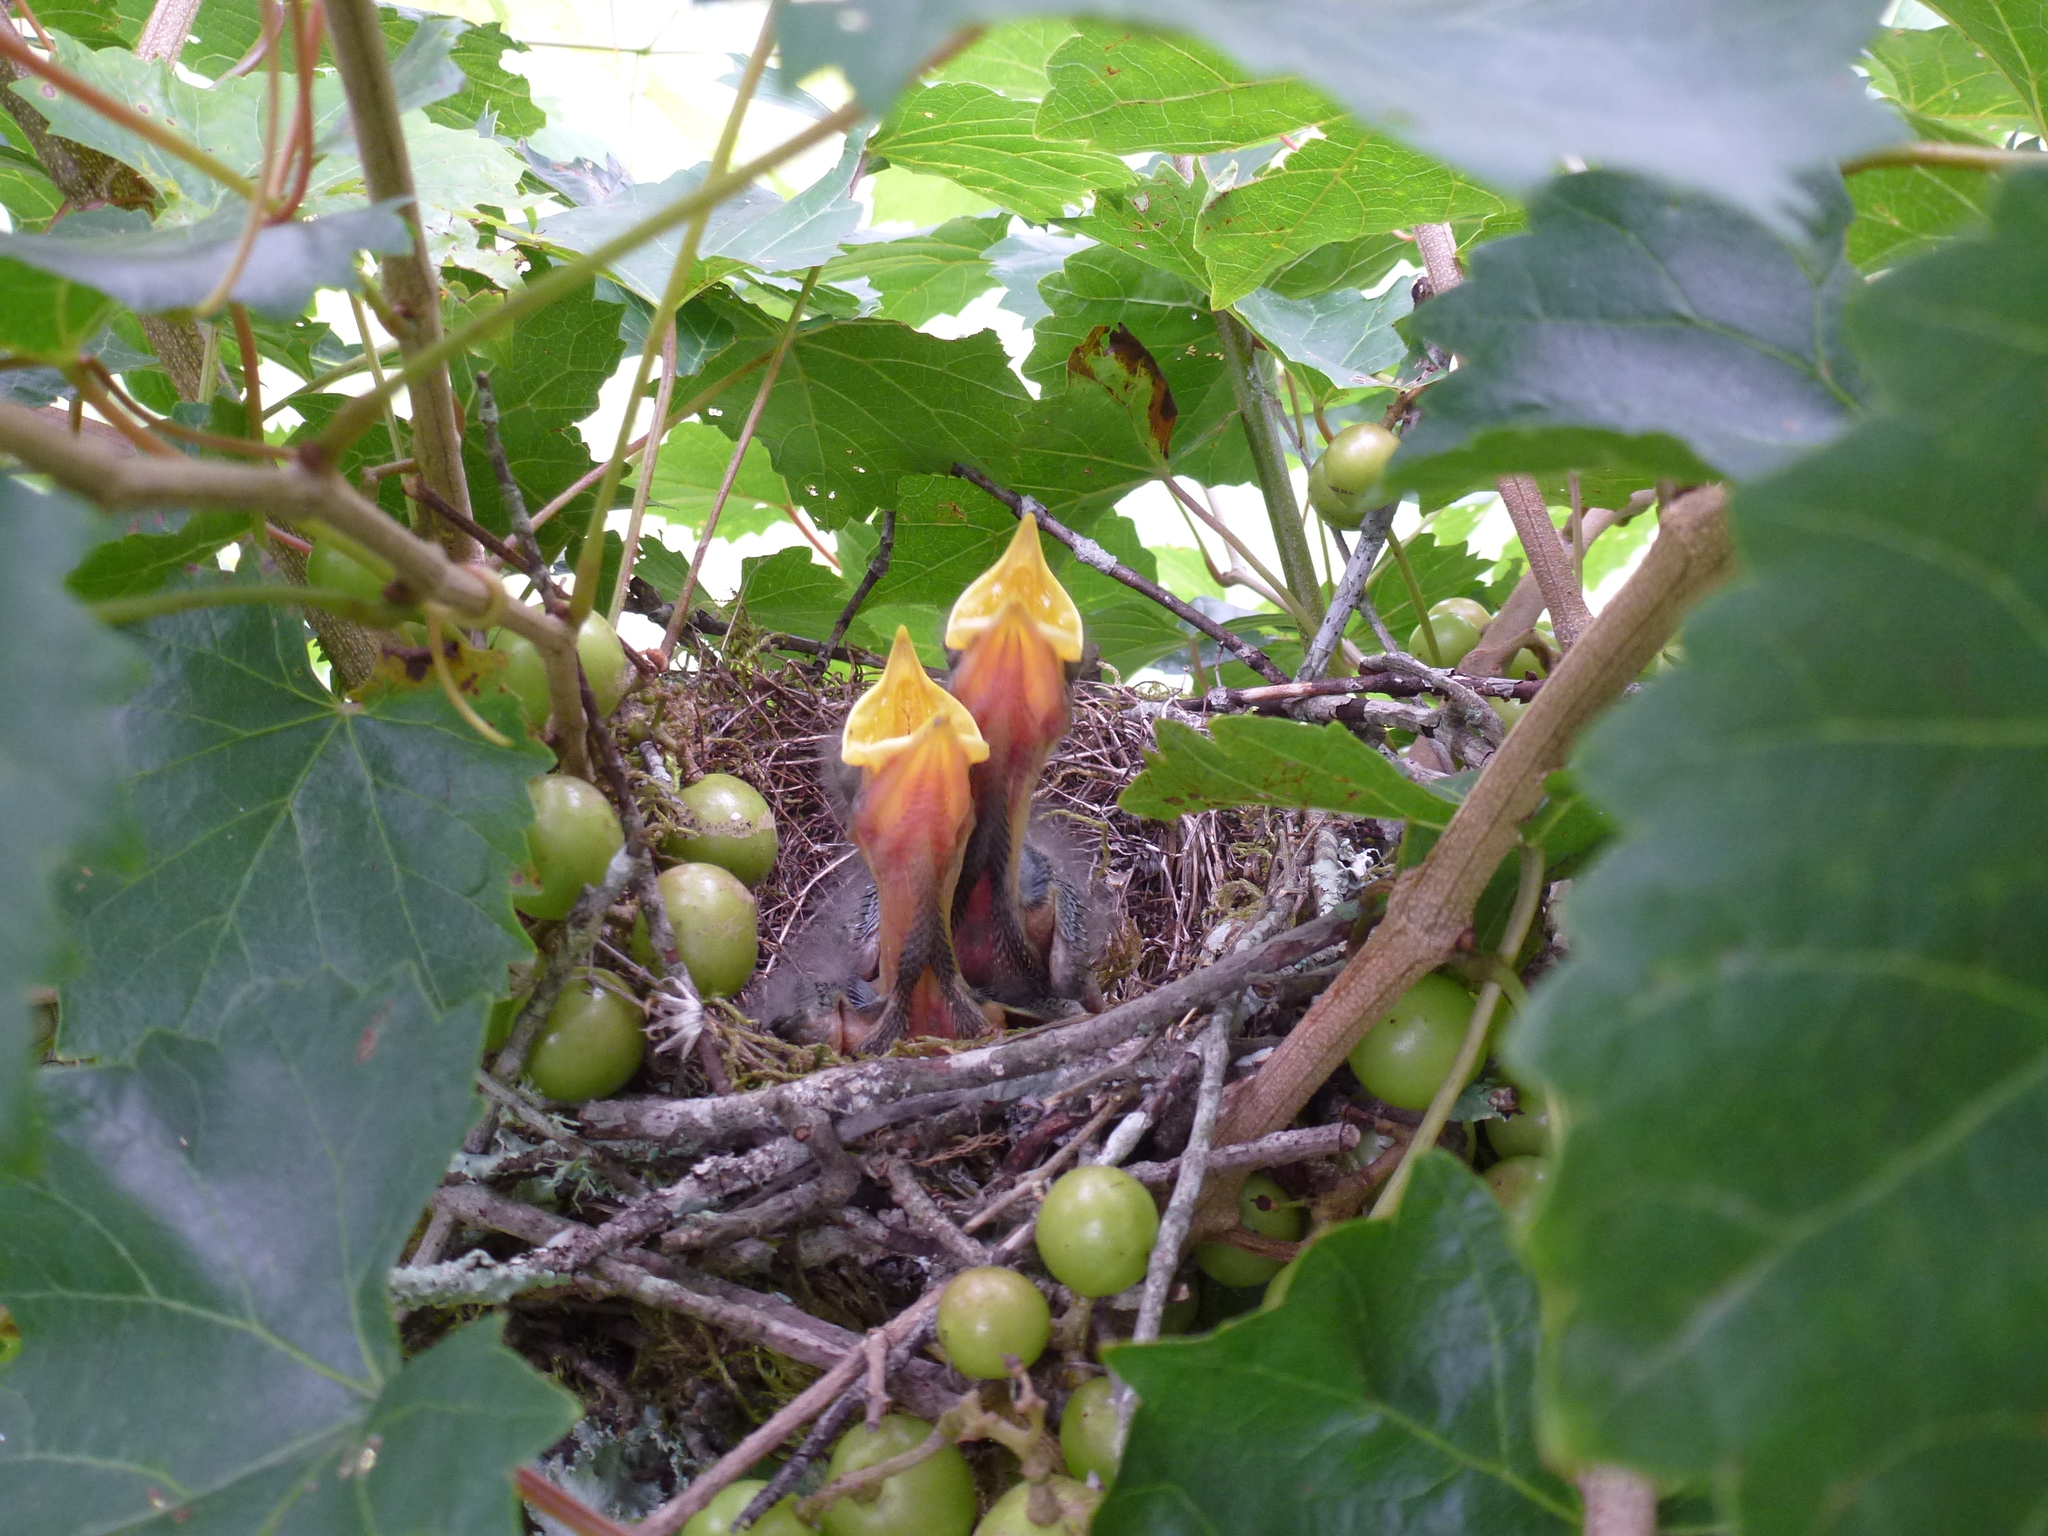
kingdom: Animalia
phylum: Chordata
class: Aves
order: Passeriformes
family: Mimidae
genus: Mimus
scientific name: Mimus polyglottos
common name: Northern mockingbird
